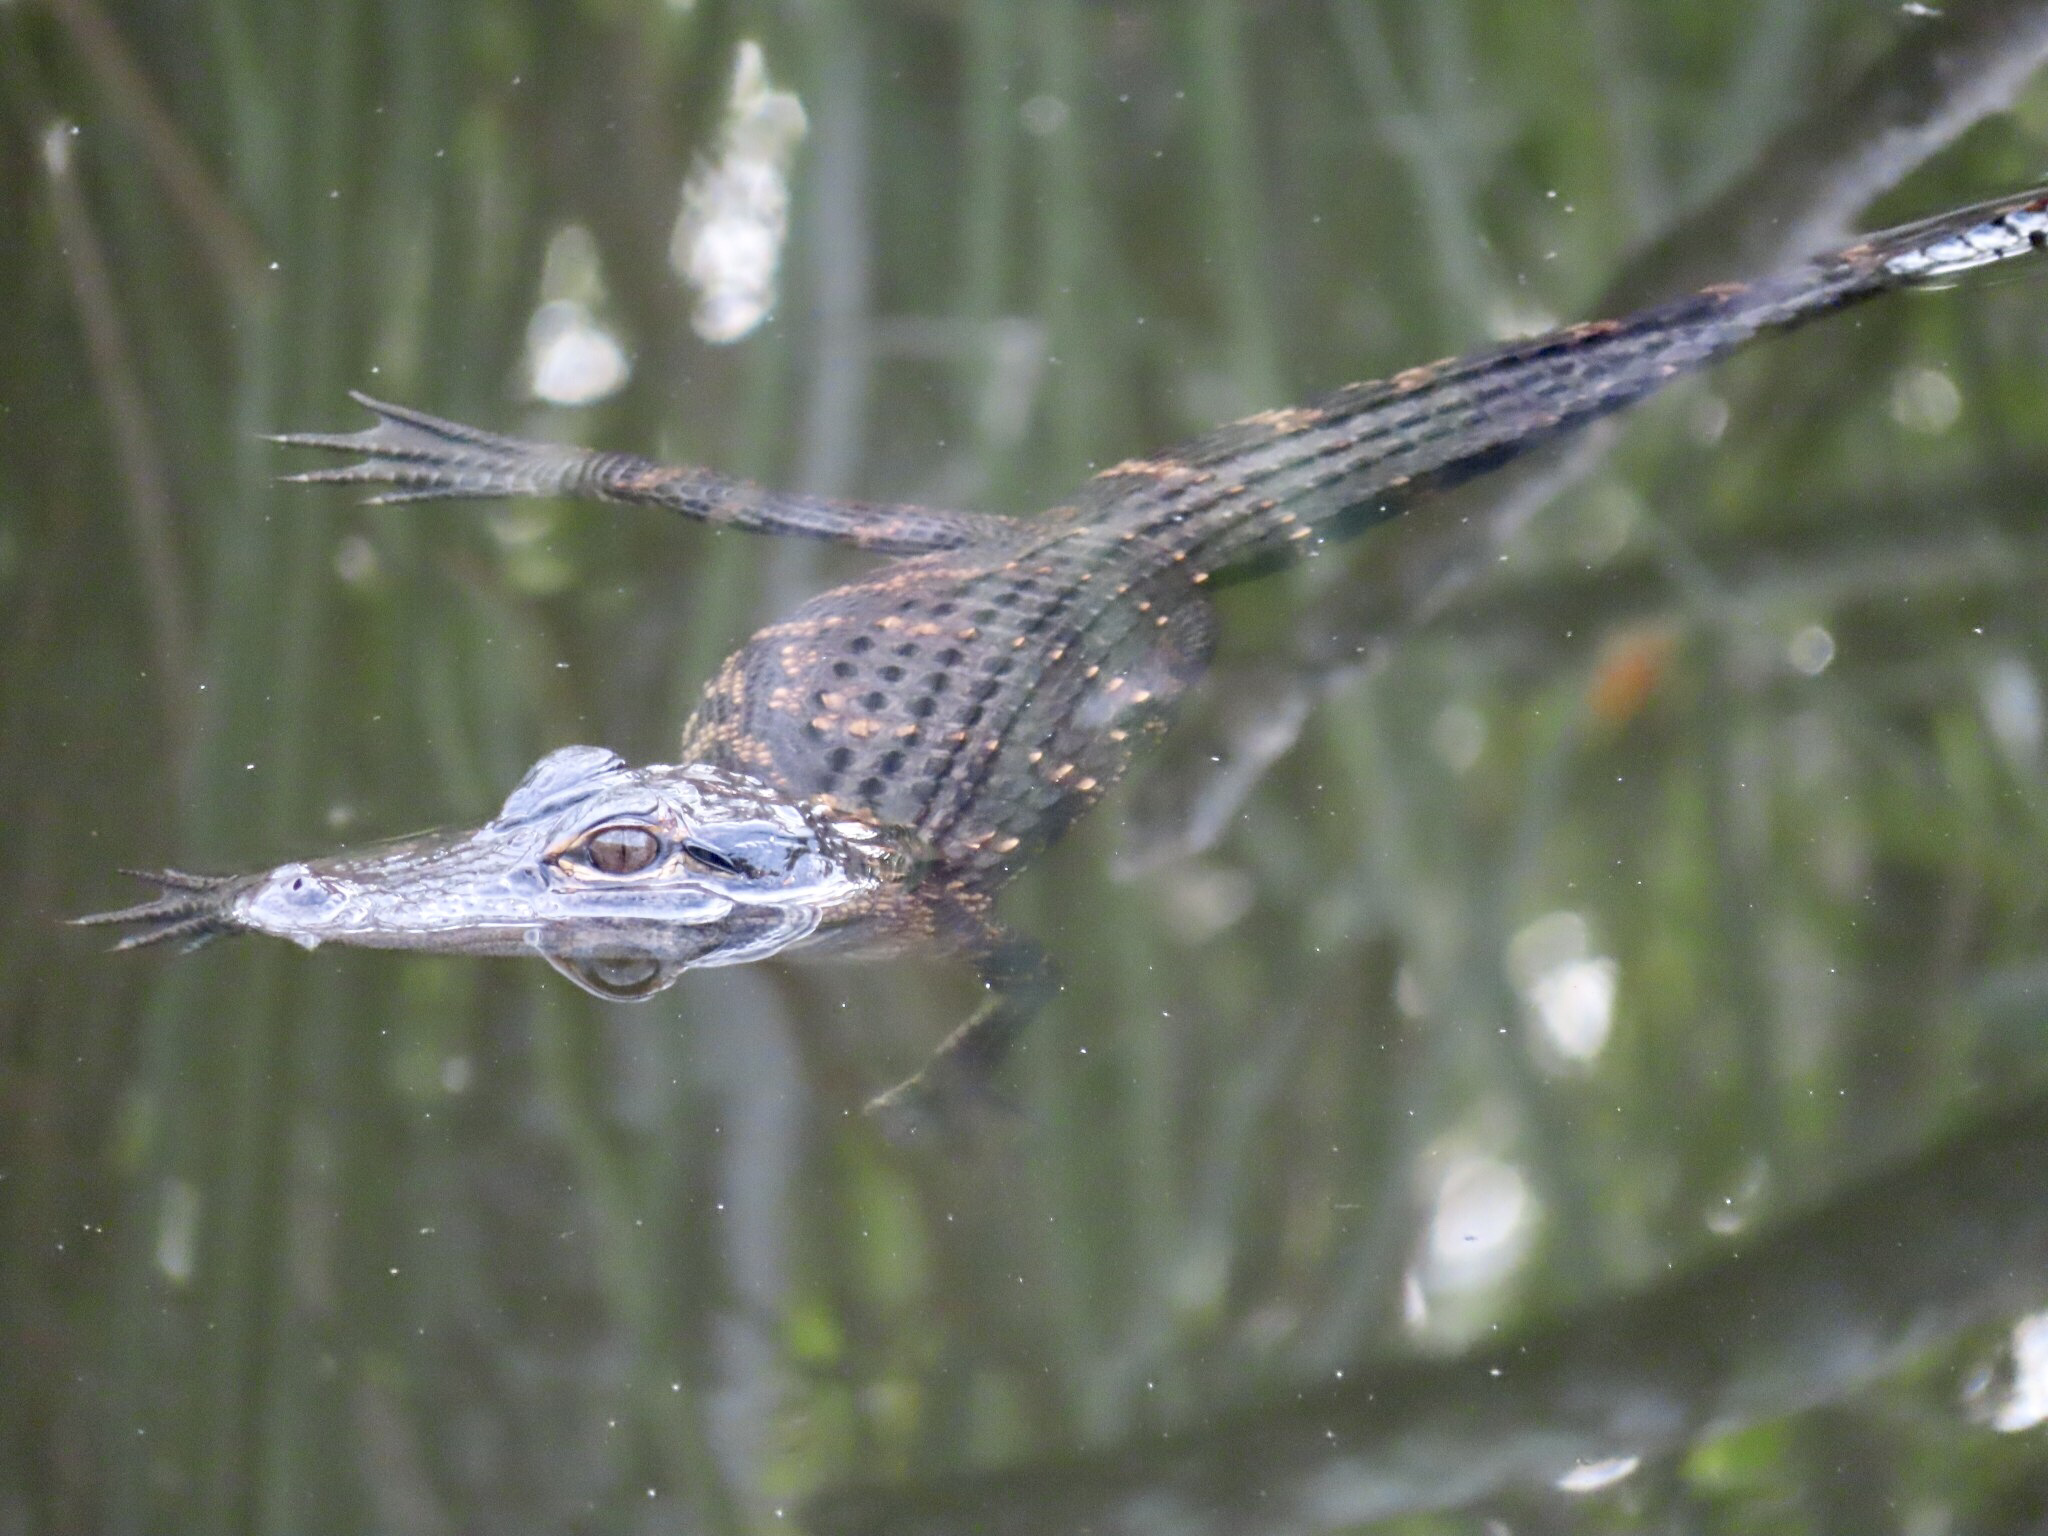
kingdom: Animalia
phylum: Chordata
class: Crocodylia
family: Alligatoridae
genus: Alligator
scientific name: Alligator mississippiensis
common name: American alligator
